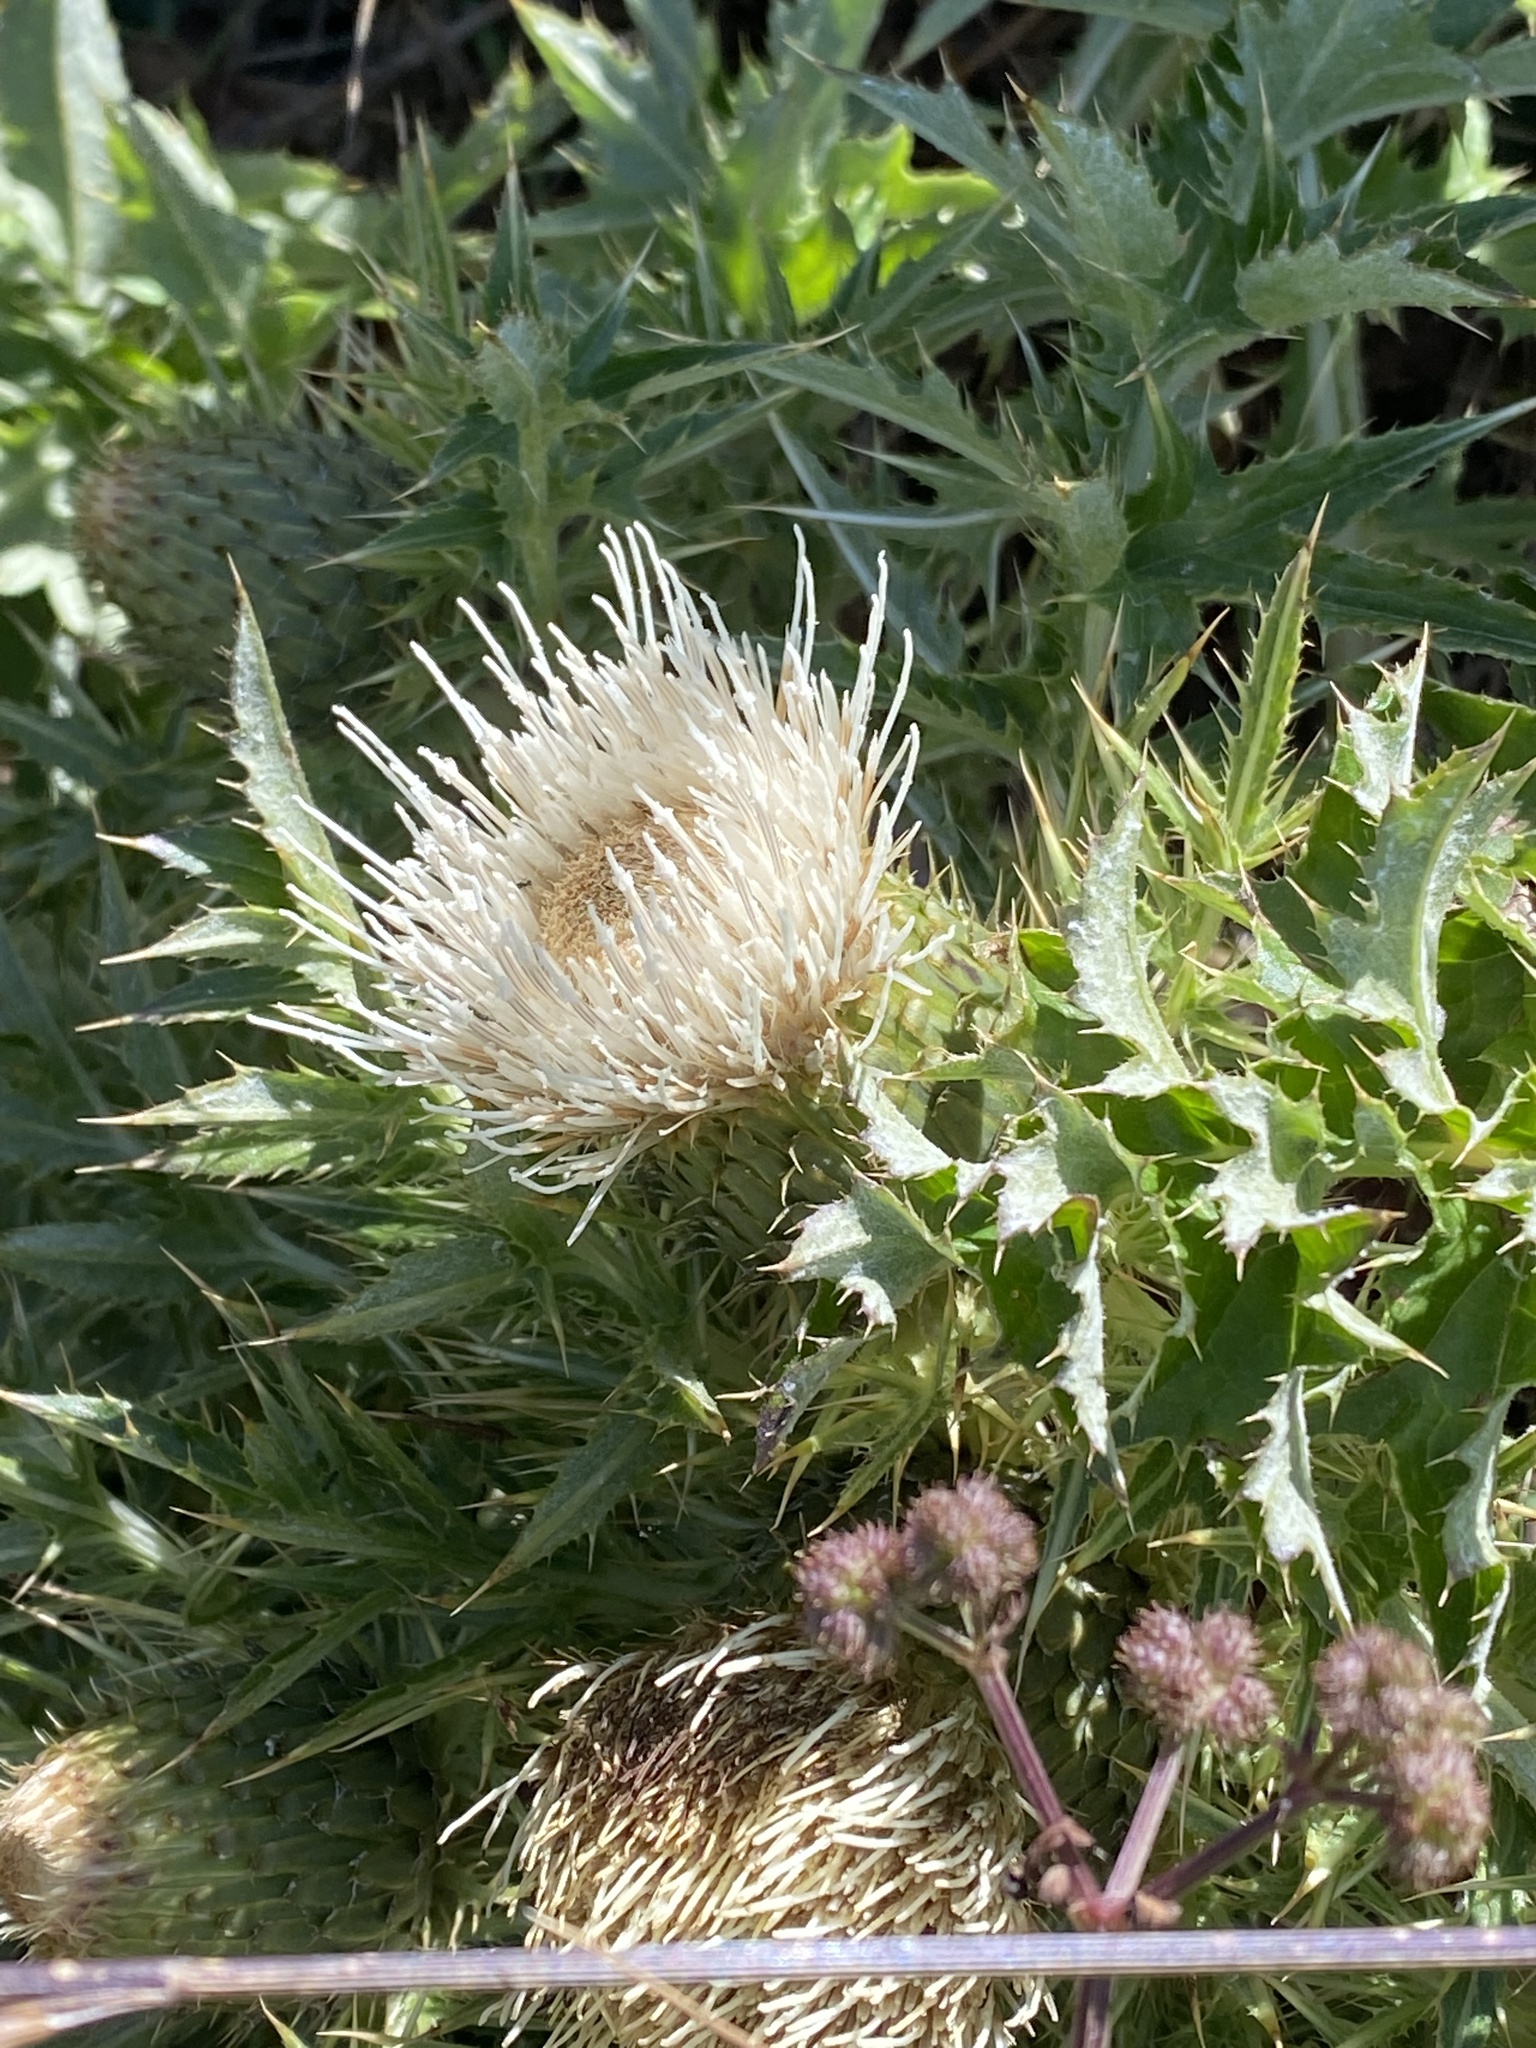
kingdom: Plantae
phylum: Tracheophyta
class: Magnoliopsida
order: Asterales
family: Asteraceae
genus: Cirsium
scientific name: Cirsium quercetorum
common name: Alameda county thistle
